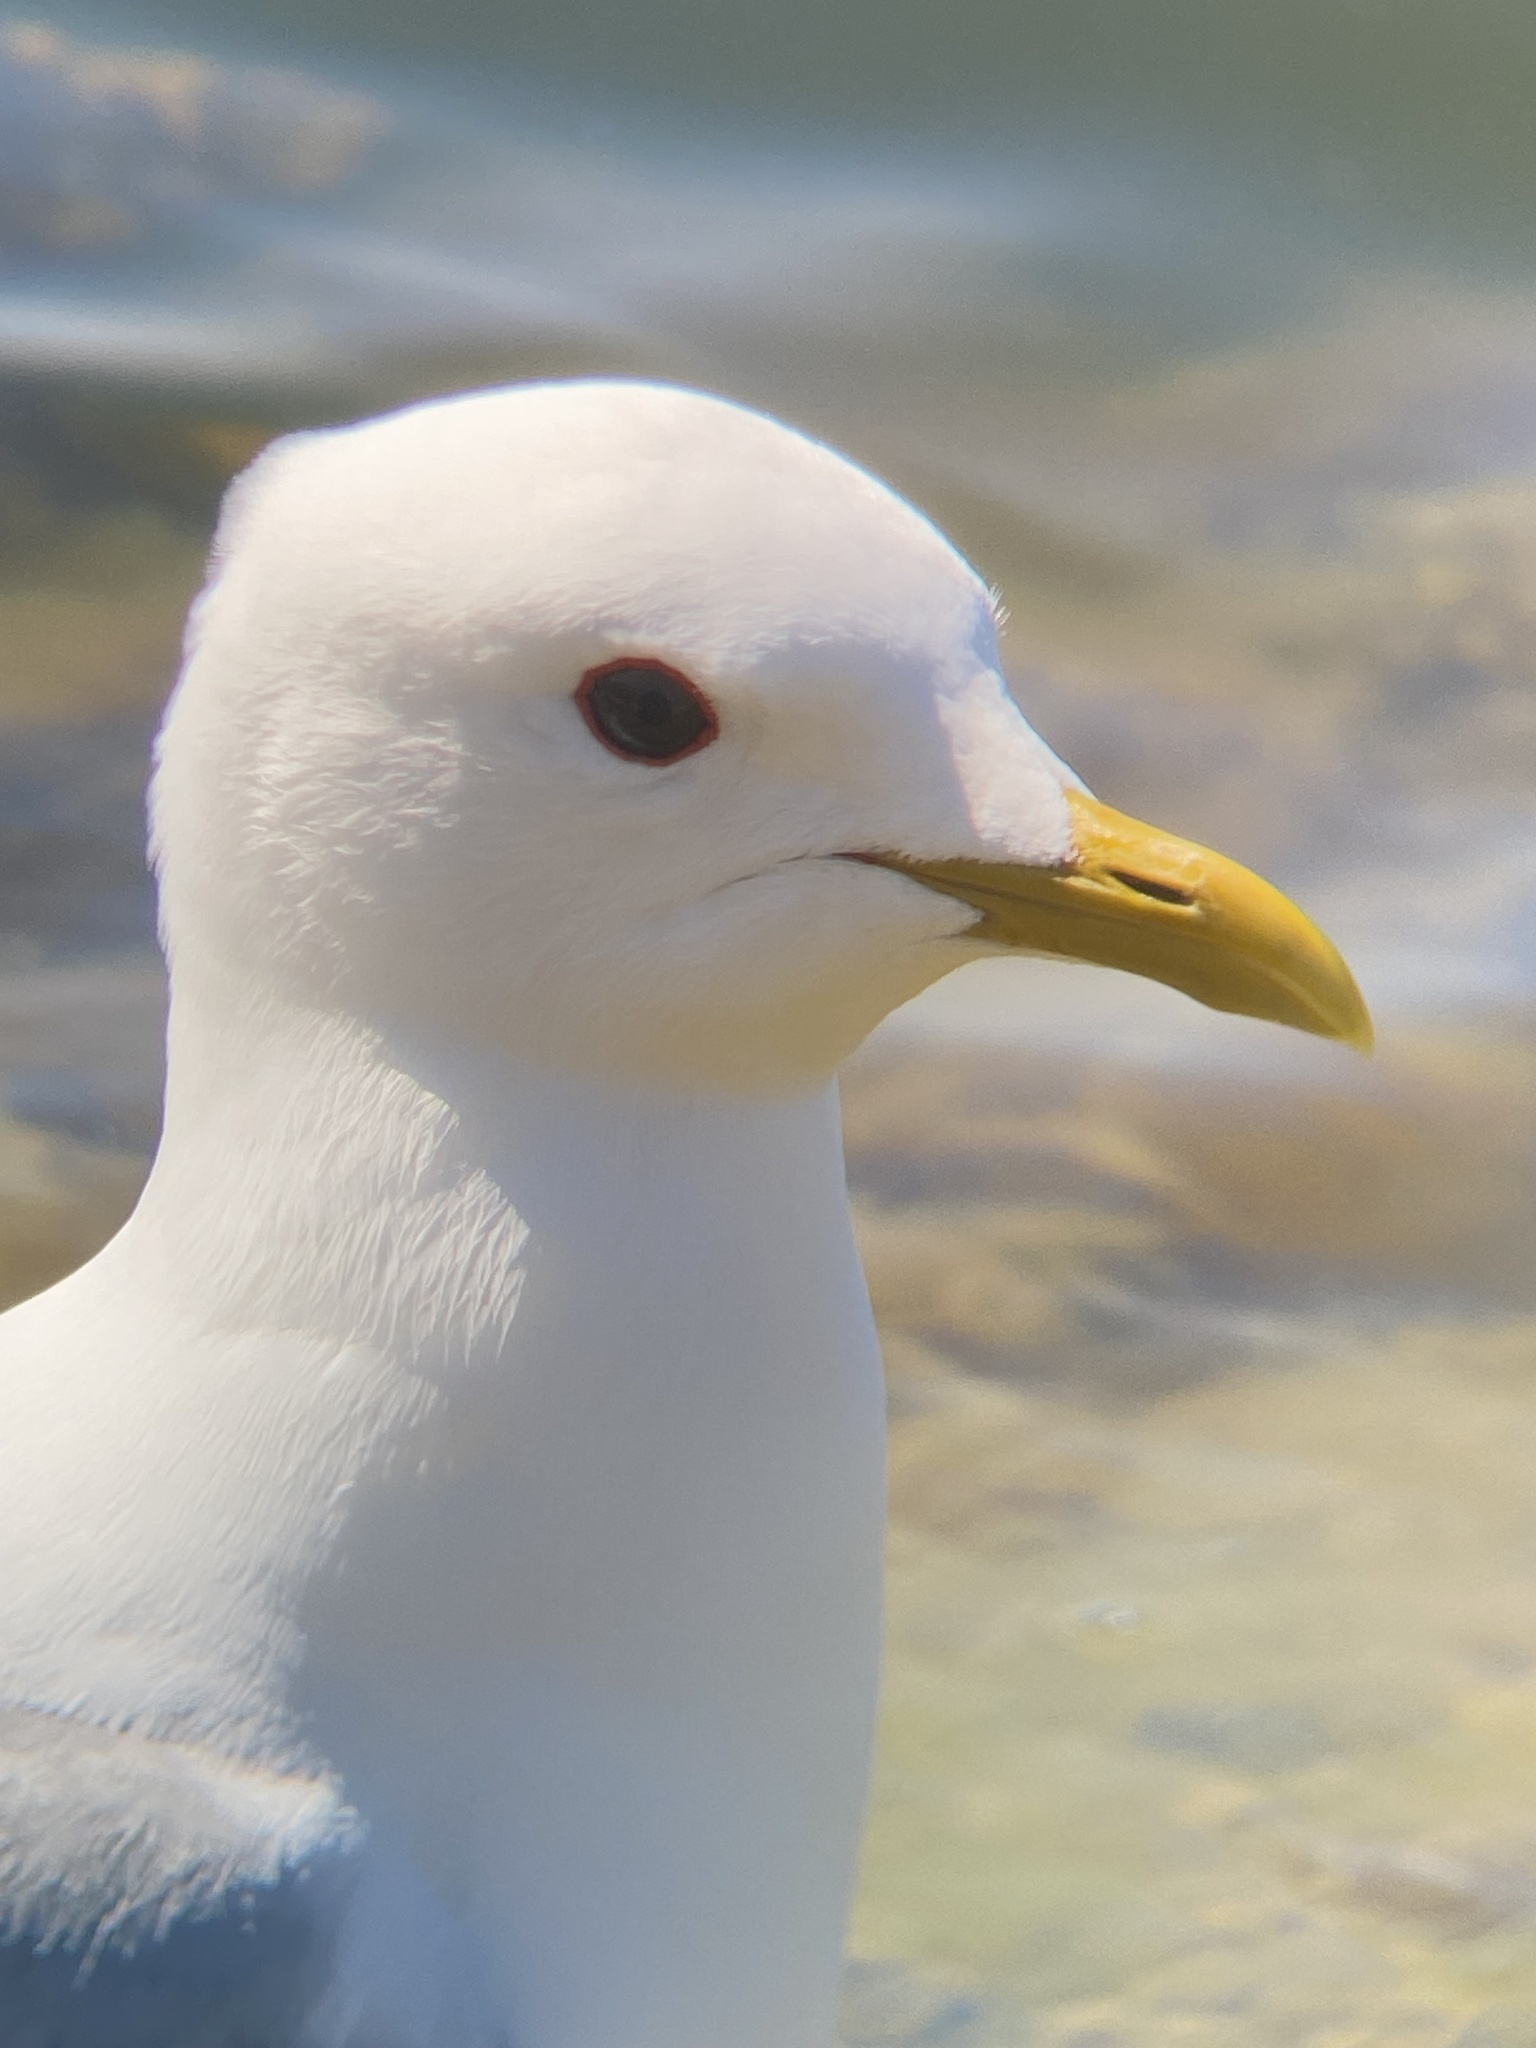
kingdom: Animalia
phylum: Chordata
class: Aves
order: Charadriiformes
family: Laridae
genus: Larus
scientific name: Larus canus
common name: Mew gull
